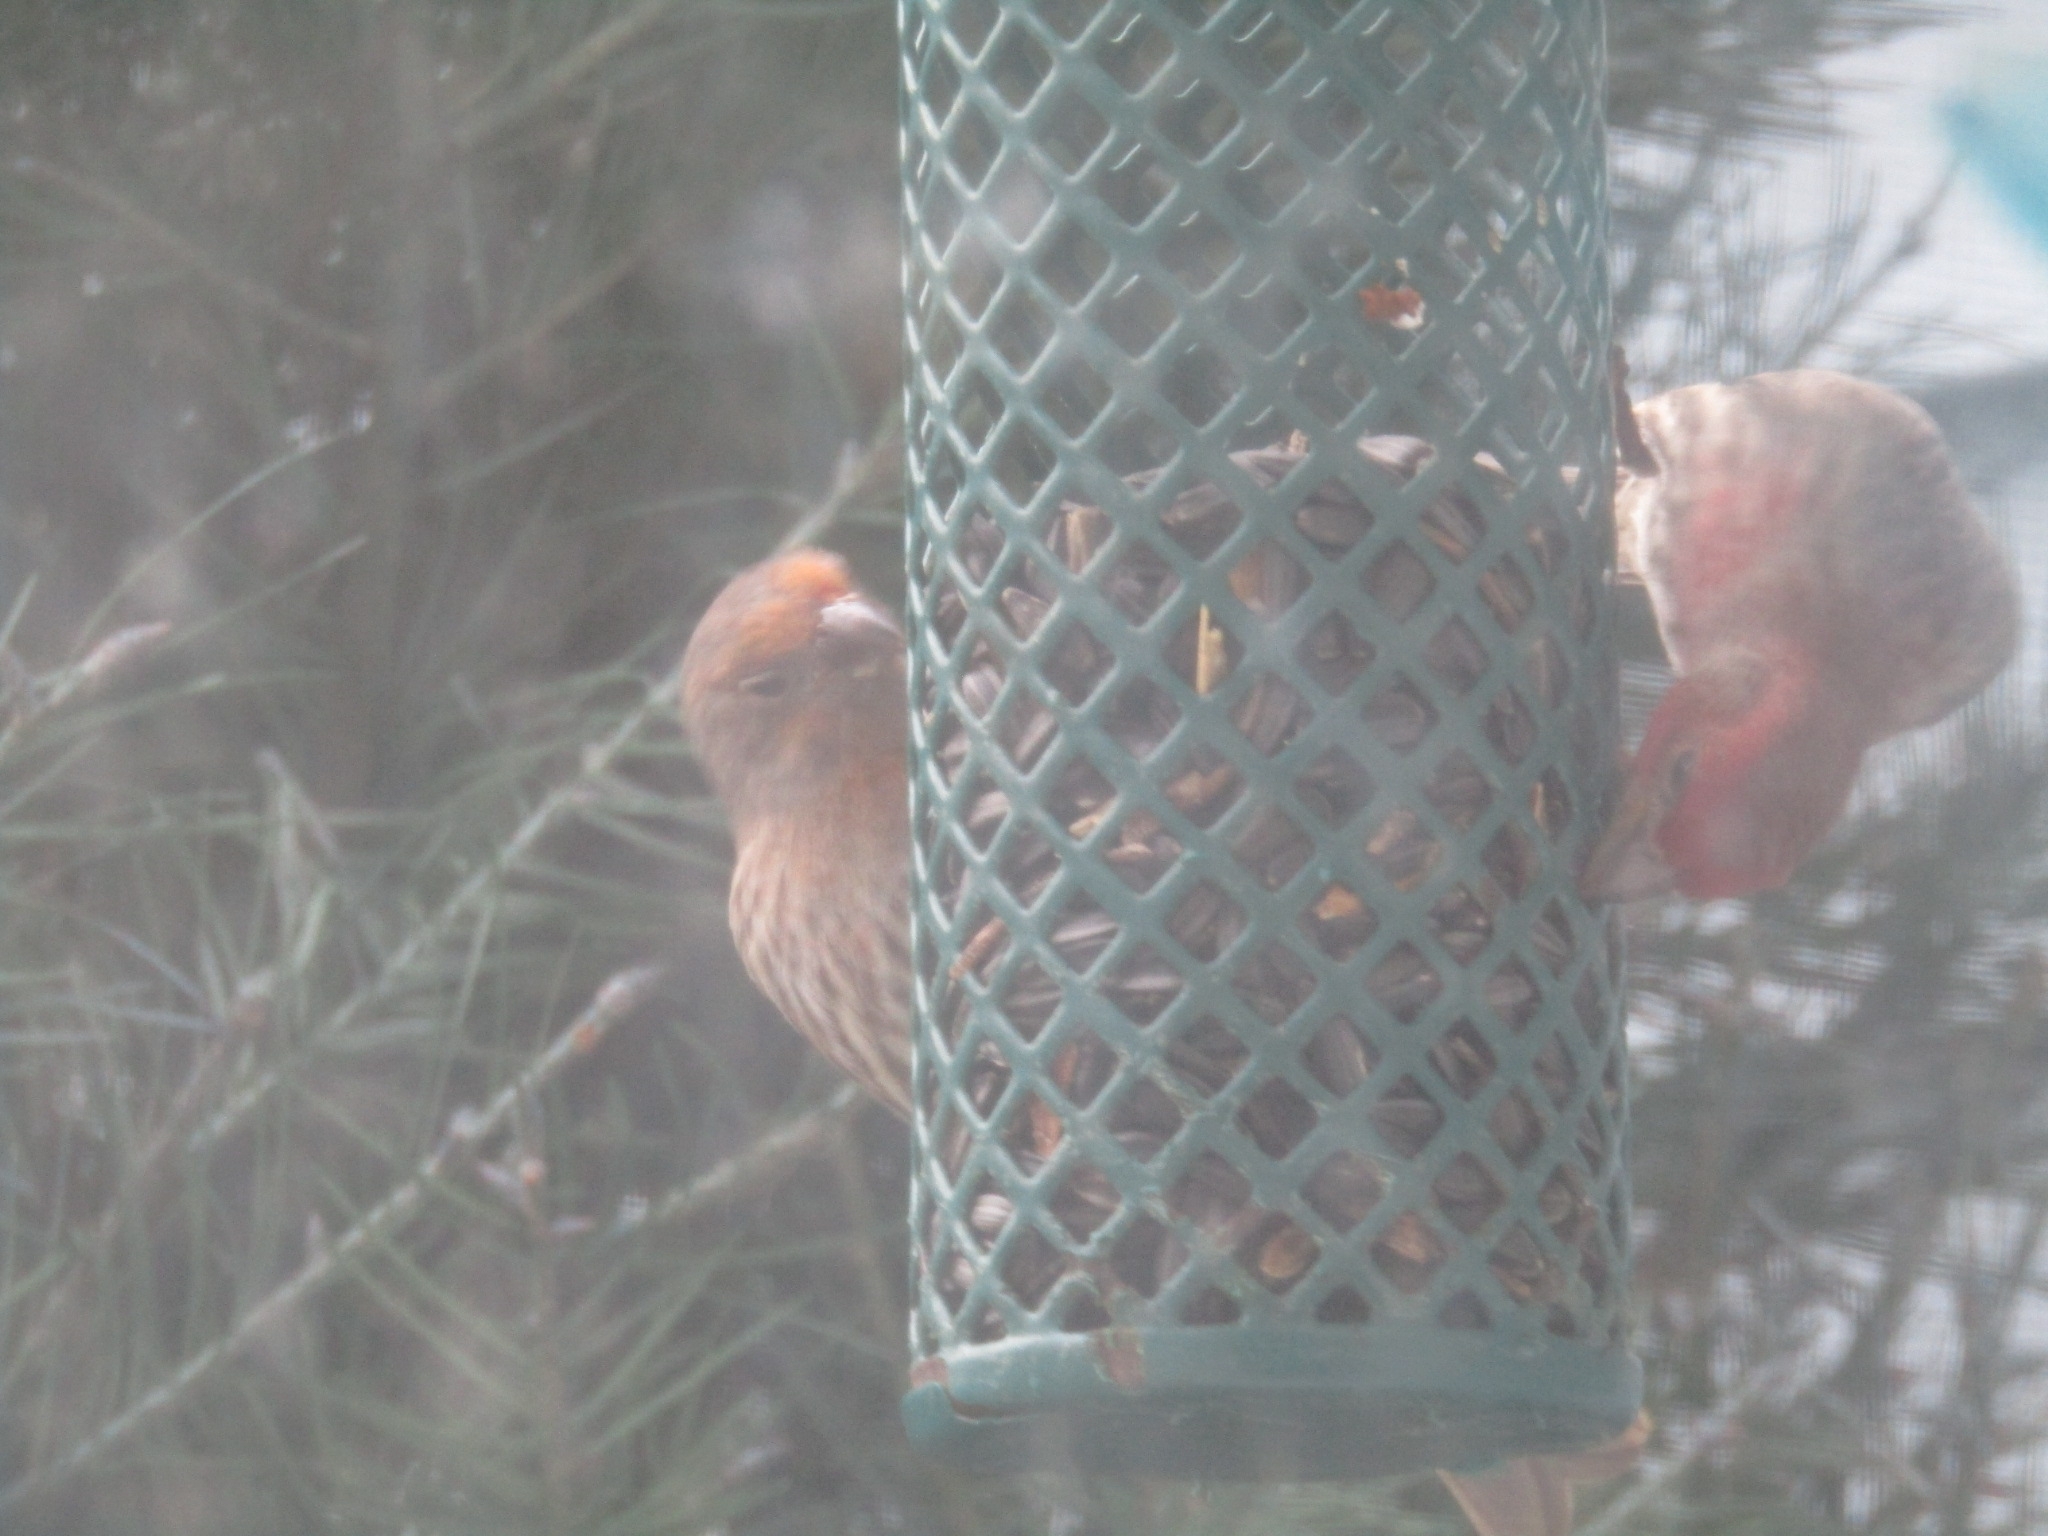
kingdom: Animalia
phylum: Chordata
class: Aves
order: Passeriformes
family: Fringillidae
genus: Haemorhous
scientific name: Haemorhous mexicanus
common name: House finch
